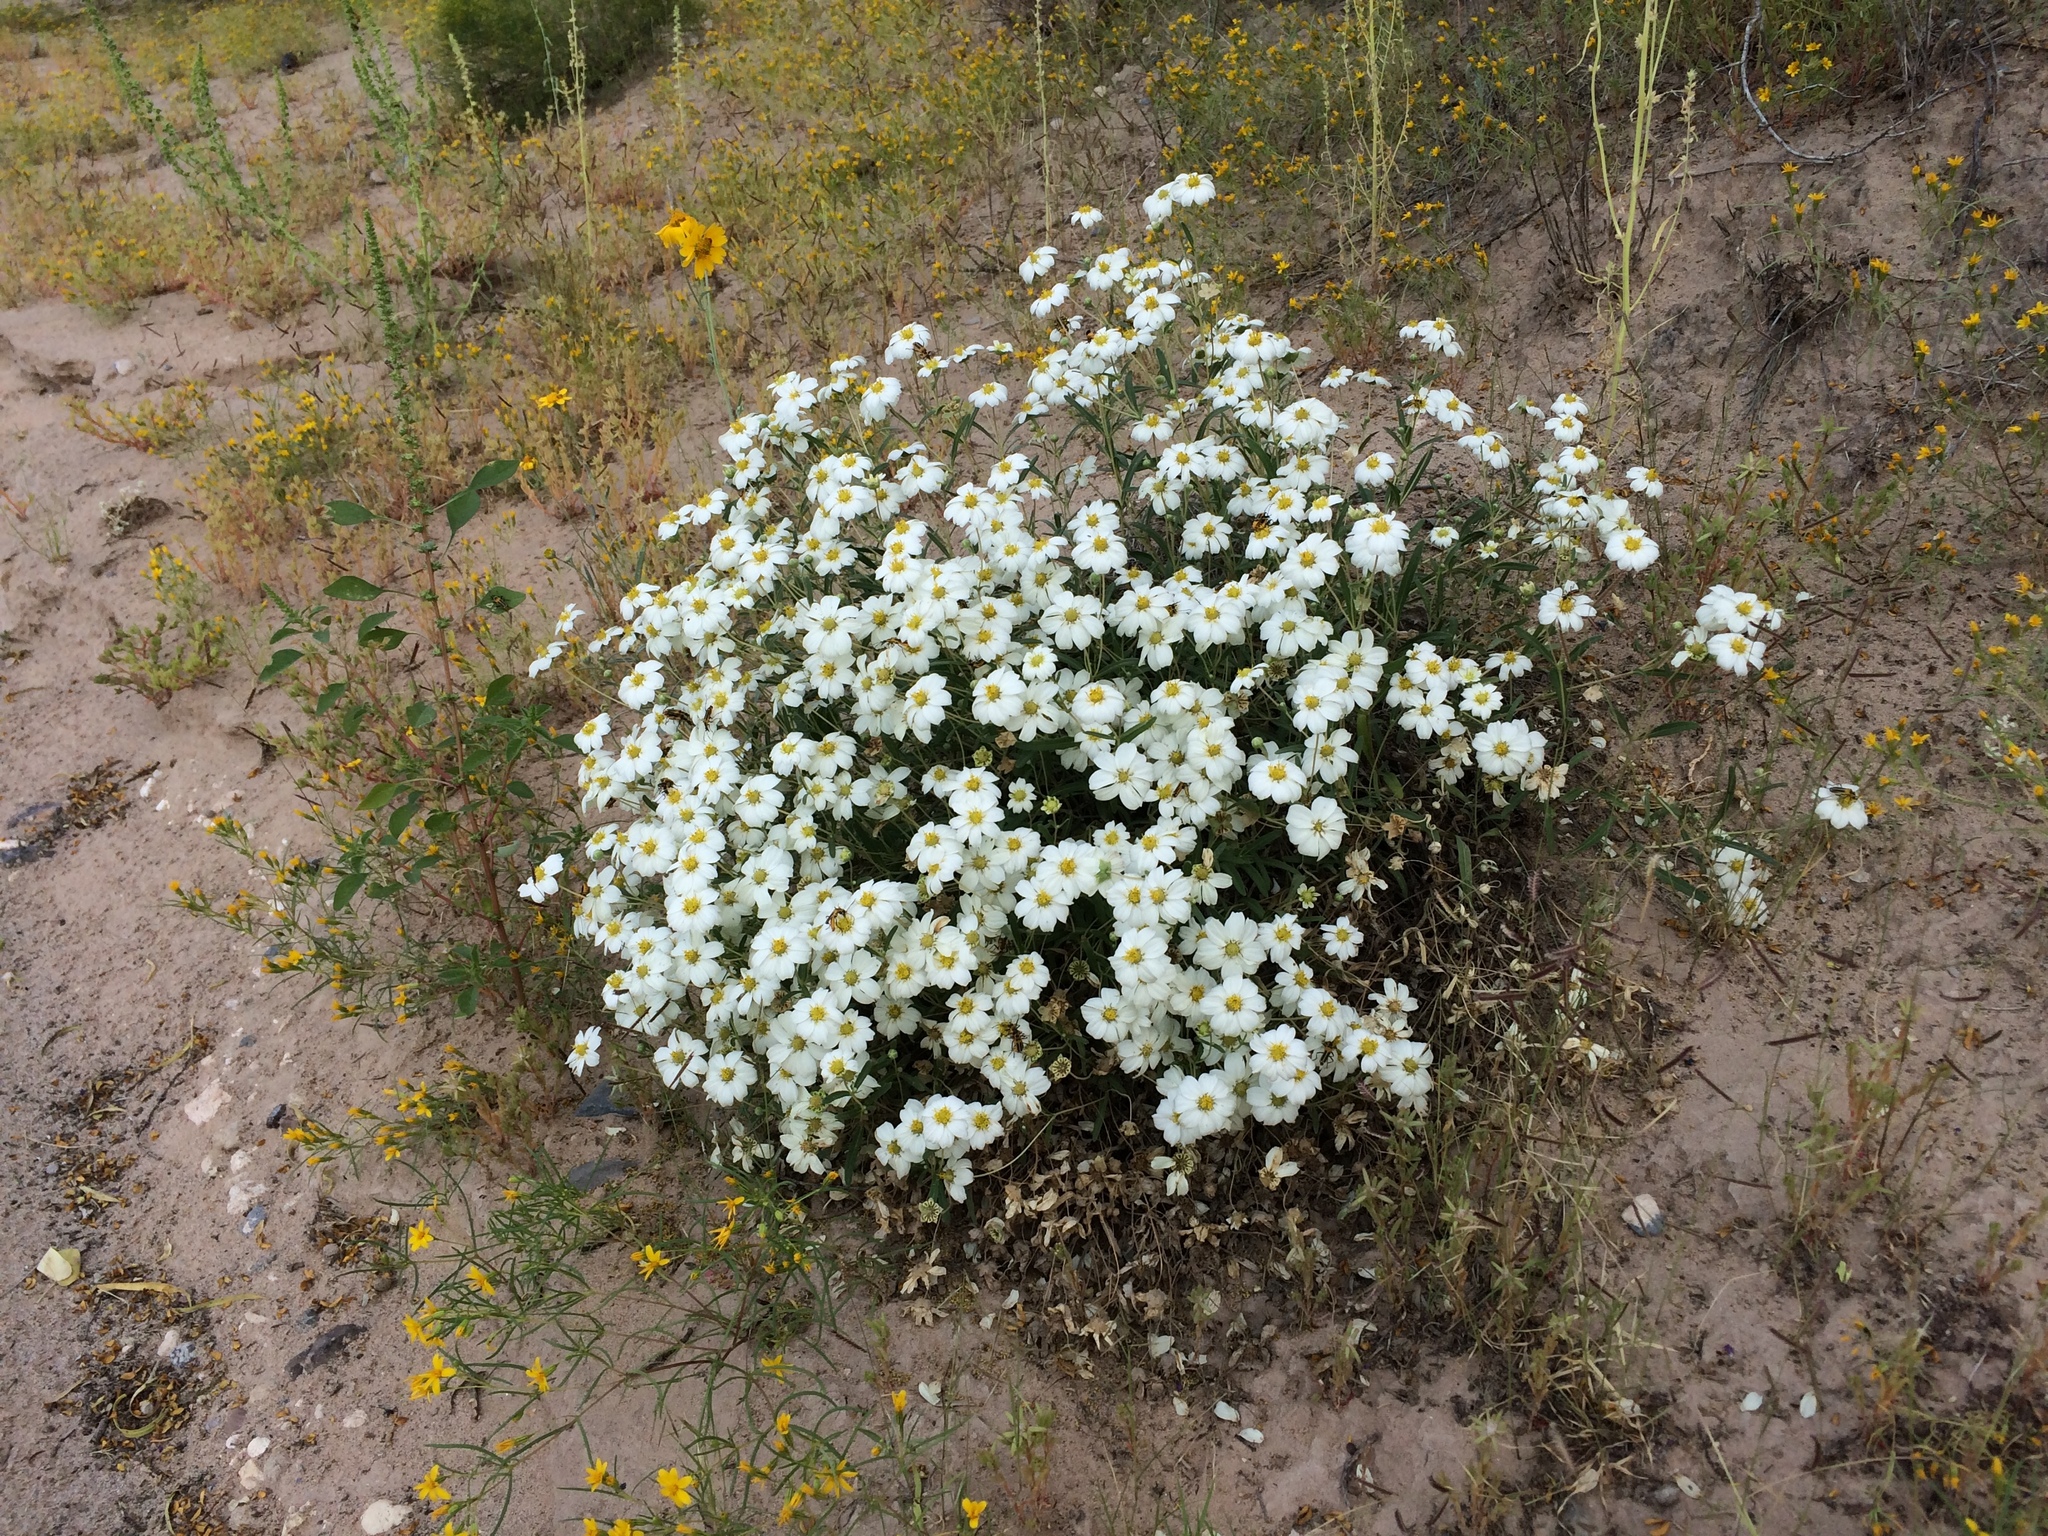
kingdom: Plantae
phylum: Tracheophyta
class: Magnoliopsida
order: Asterales
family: Asteraceae
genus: Melampodium
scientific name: Melampodium leucanthum
